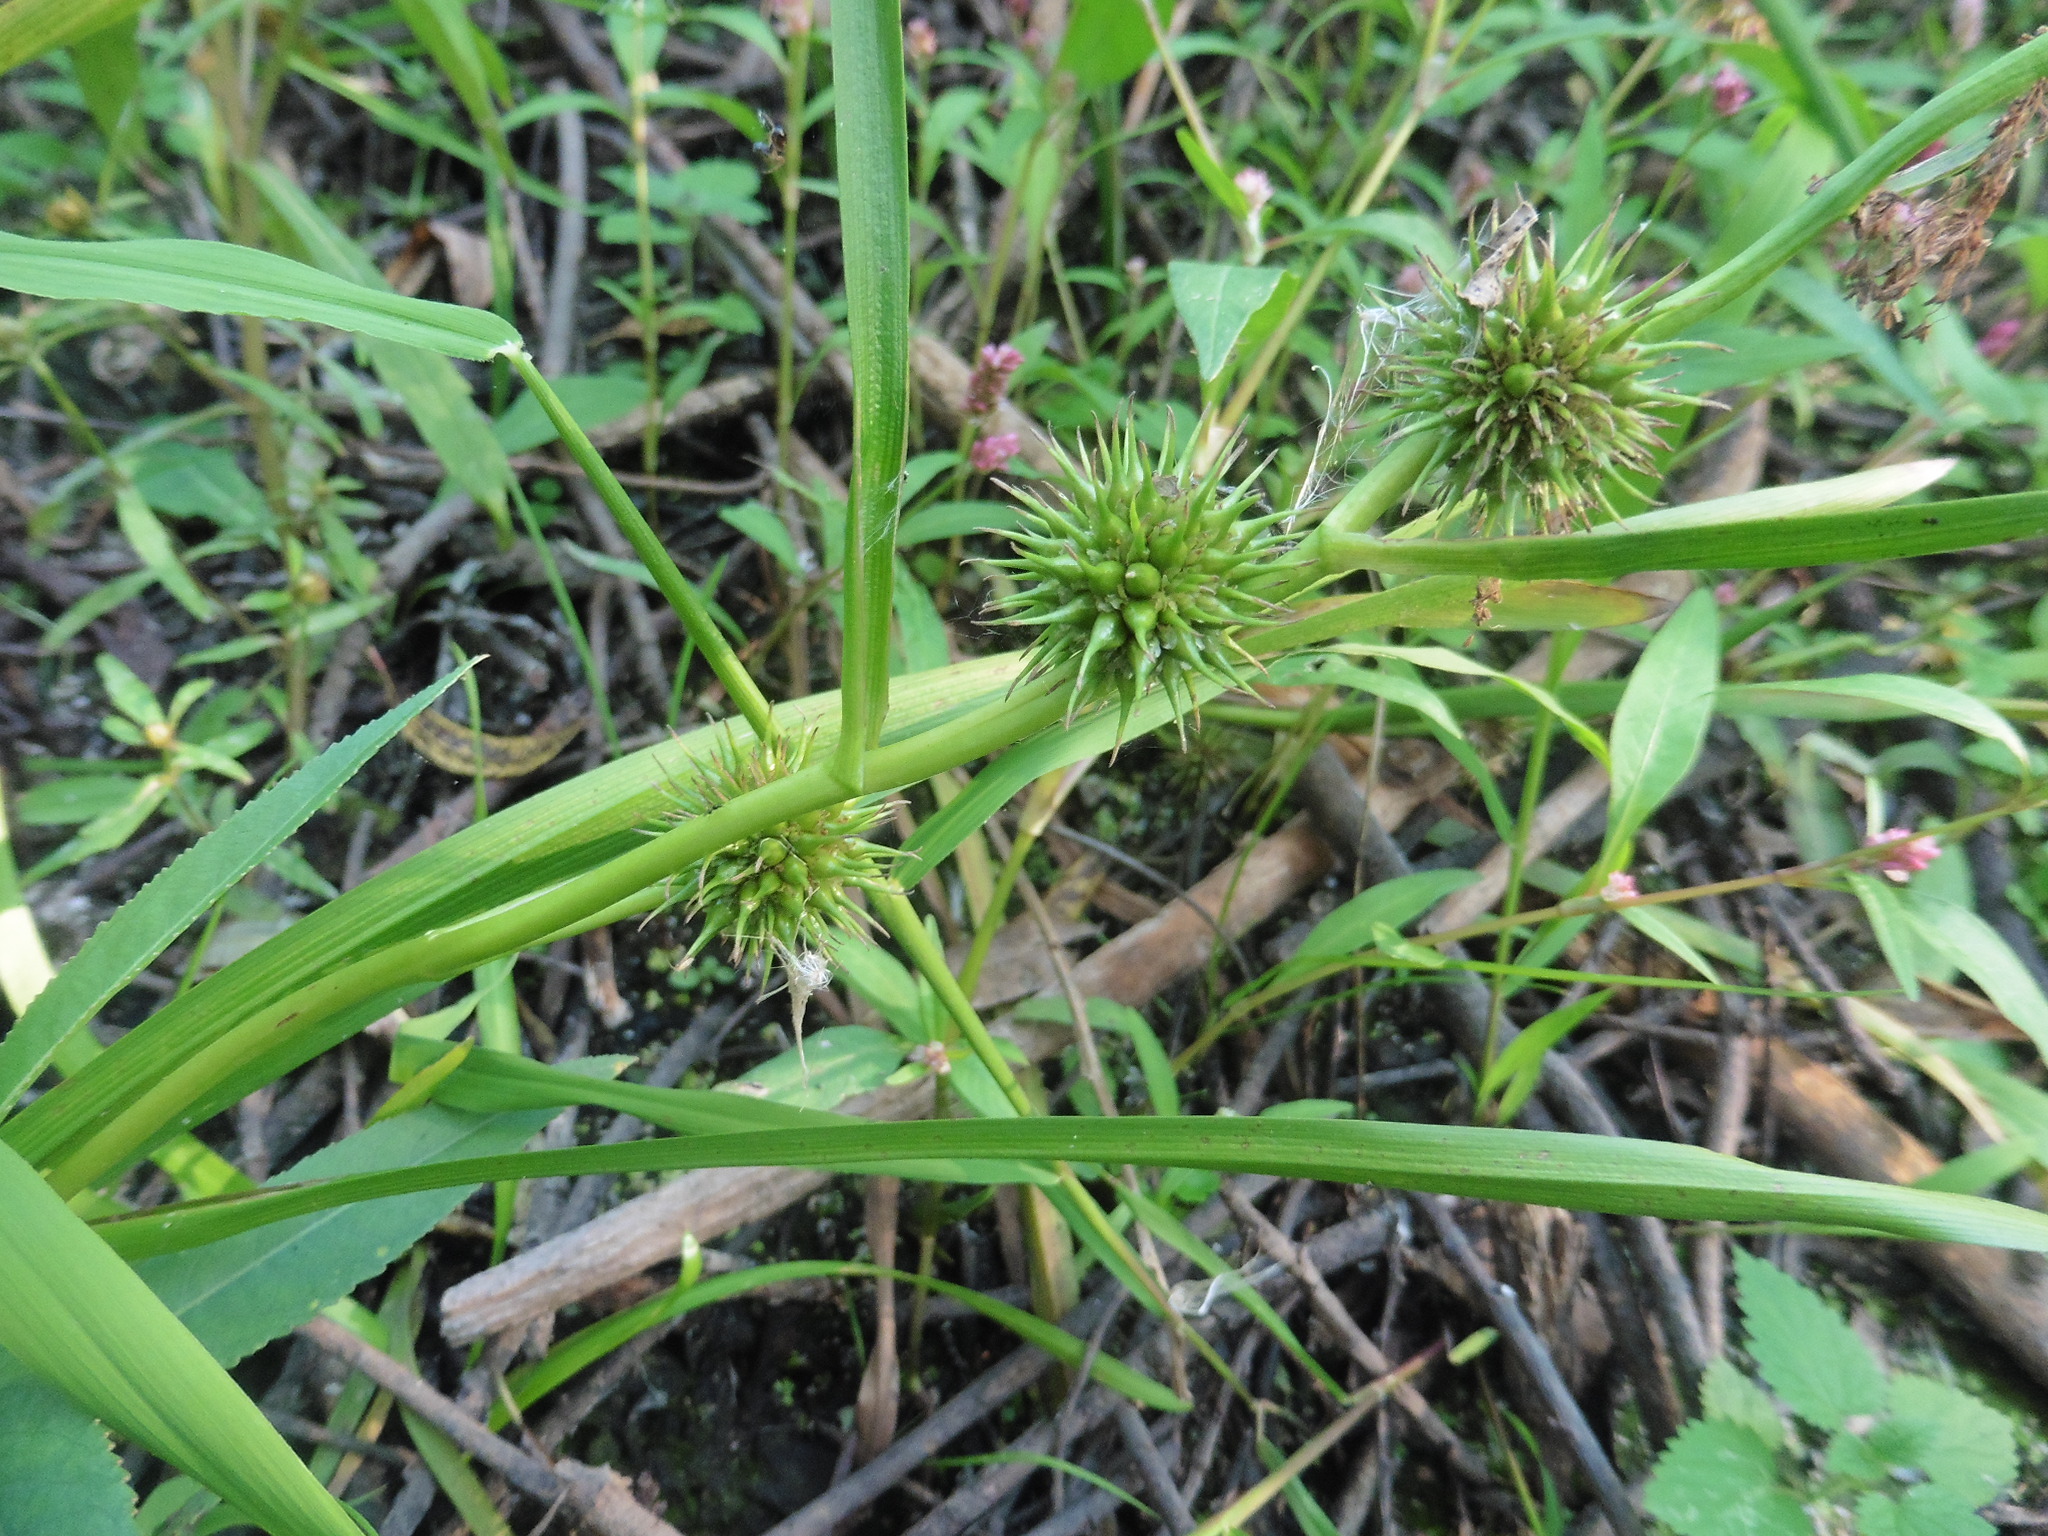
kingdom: Plantae
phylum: Tracheophyta
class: Liliopsida
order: Poales
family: Typhaceae
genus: Sparganium
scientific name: Sparganium emersum
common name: Unbranched bur-reed
